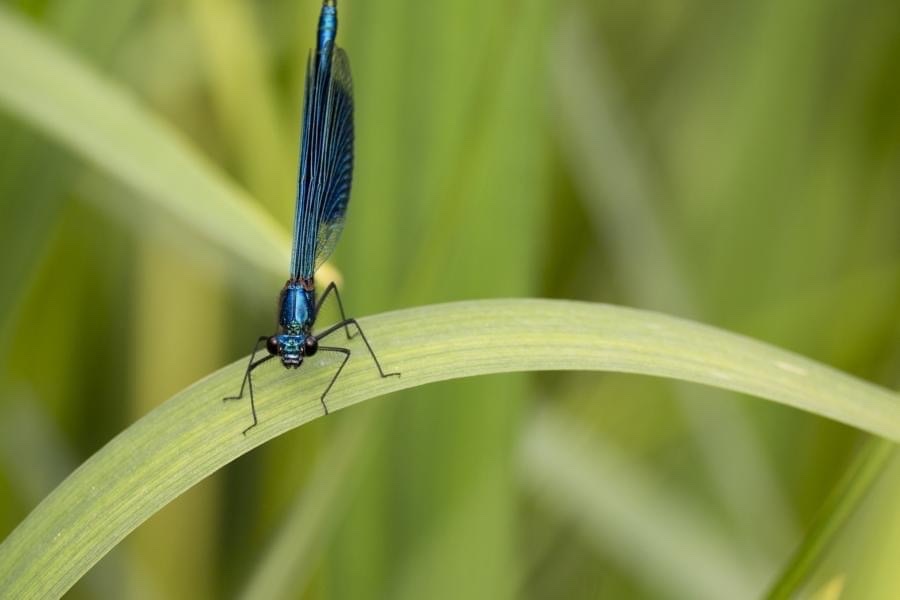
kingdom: Animalia
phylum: Arthropoda
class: Insecta
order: Odonata
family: Calopterygidae
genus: Calopteryx
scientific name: Calopteryx virgo
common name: Beautiful demoiselle
